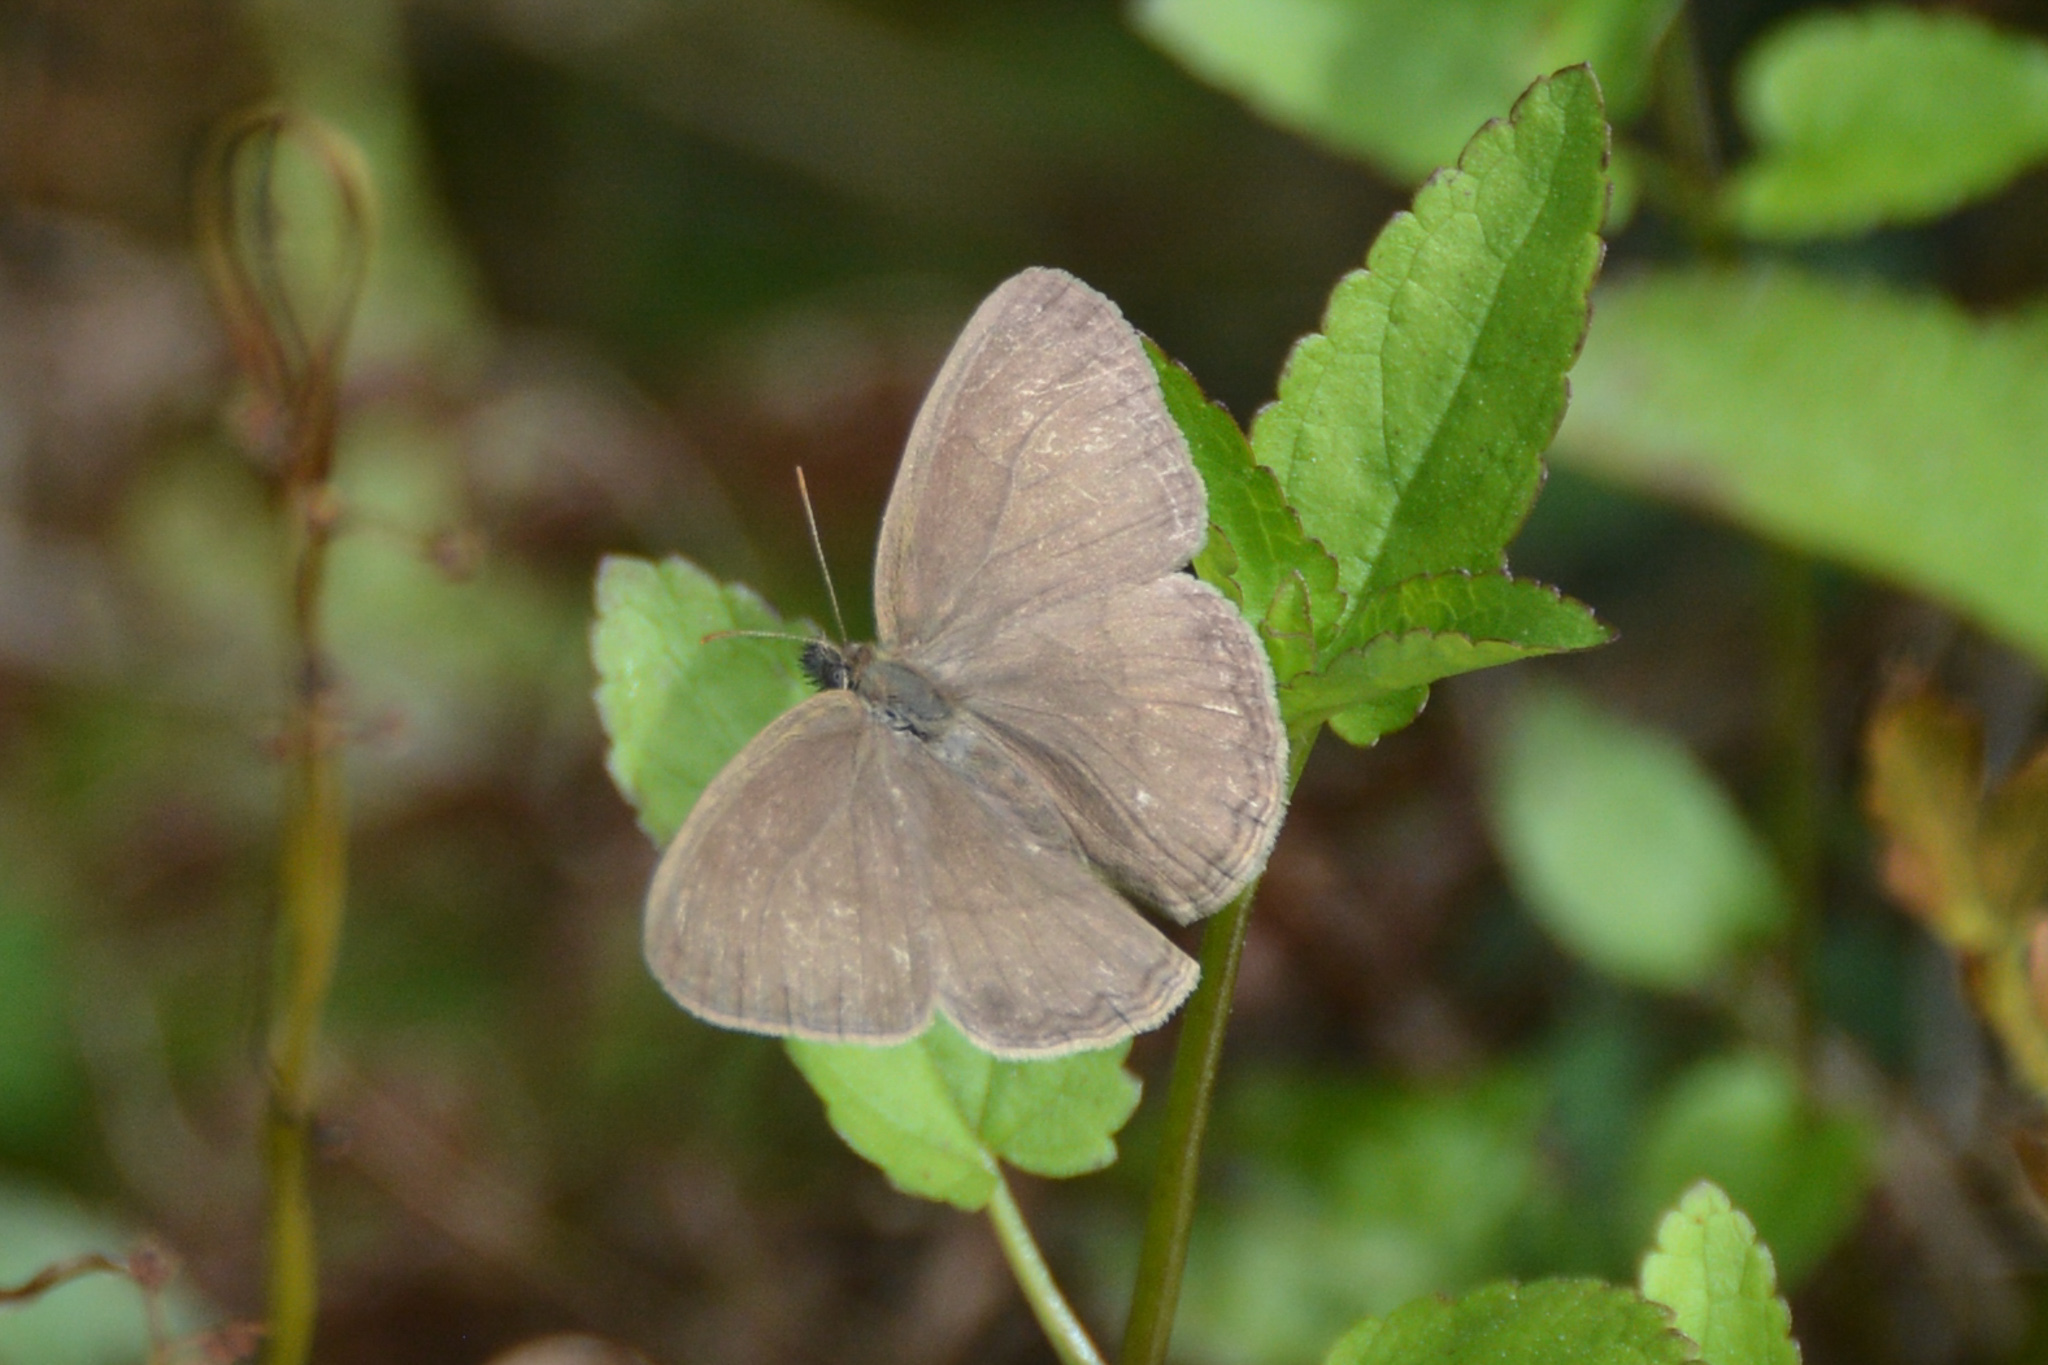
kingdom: Animalia
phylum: Arthropoda
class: Insecta
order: Lepidoptera
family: Nymphalidae
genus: Hermeuptychia
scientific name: Hermeuptychia hermes
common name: Hermes satyr
